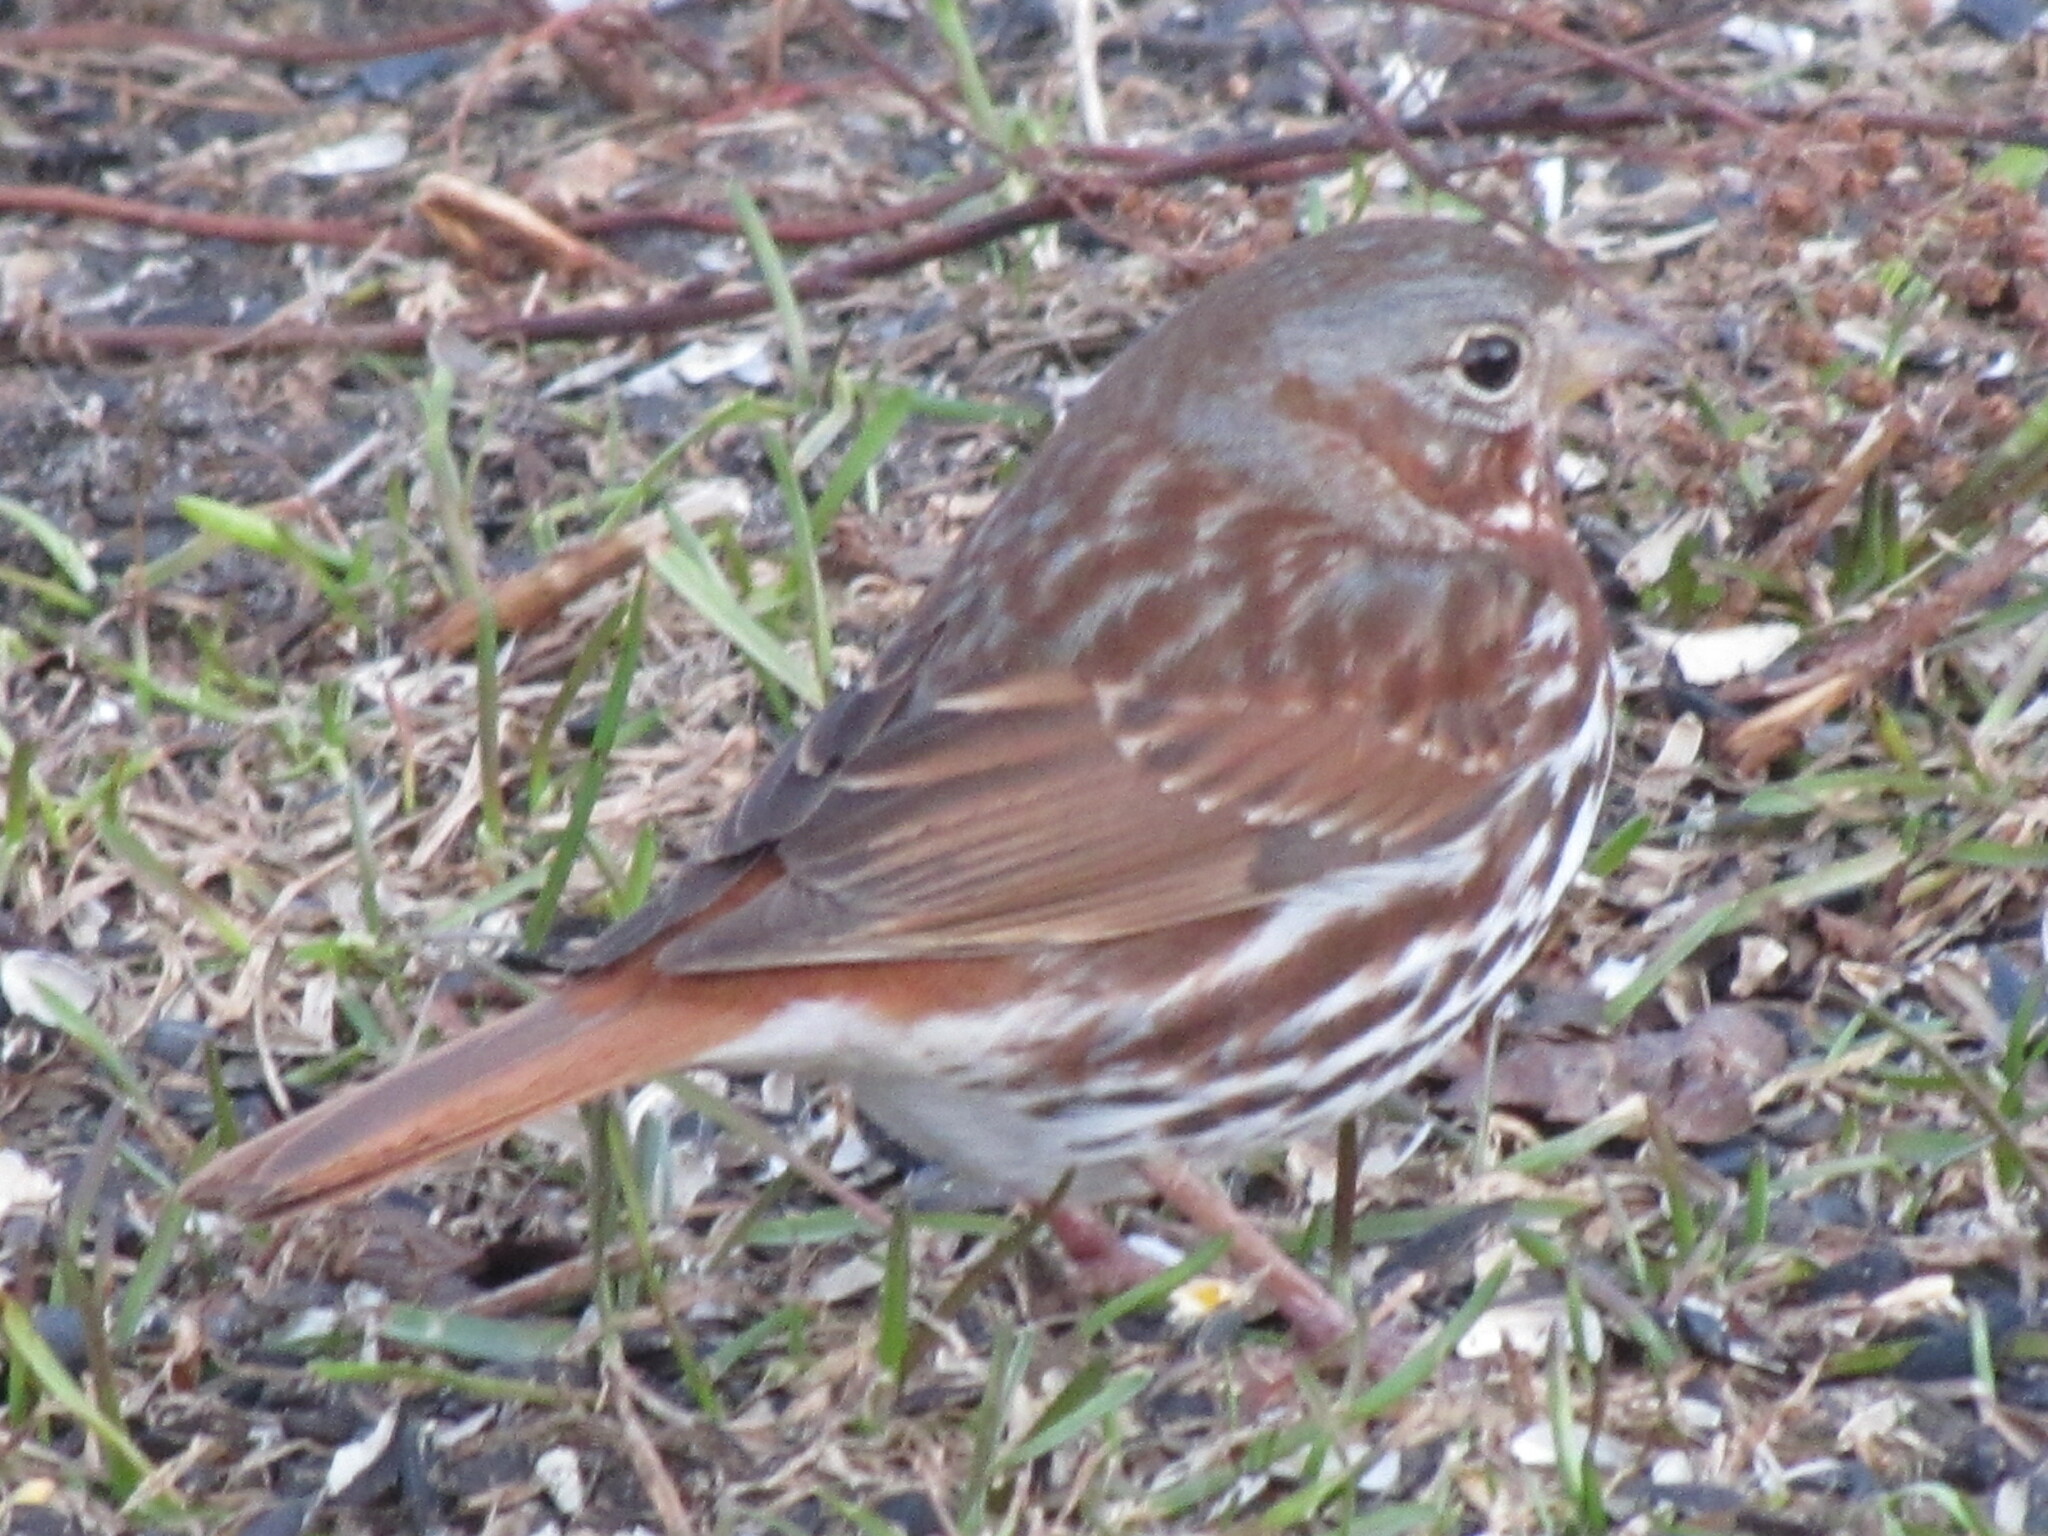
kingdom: Animalia
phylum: Chordata
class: Aves
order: Passeriformes
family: Passerellidae
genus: Passerella
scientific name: Passerella iliaca
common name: Fox sparrow
